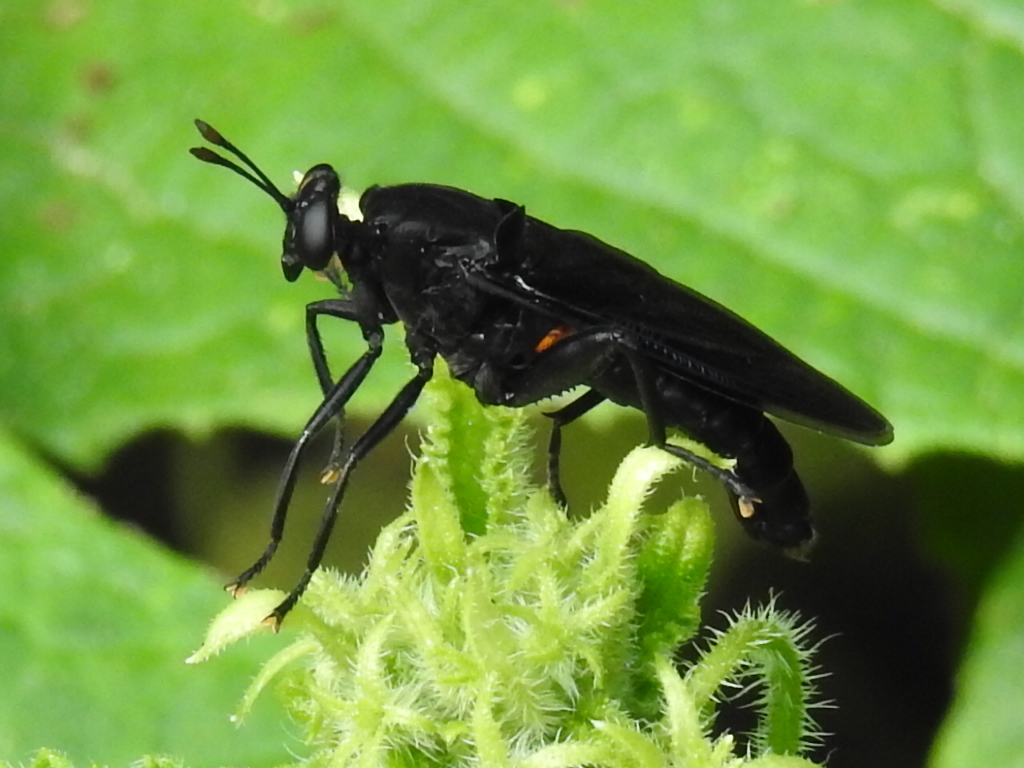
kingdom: Animalia
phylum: Arthropoda
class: Insecta
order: Diptera
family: Mydidae
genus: Mydas
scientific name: Mydas clavatus
